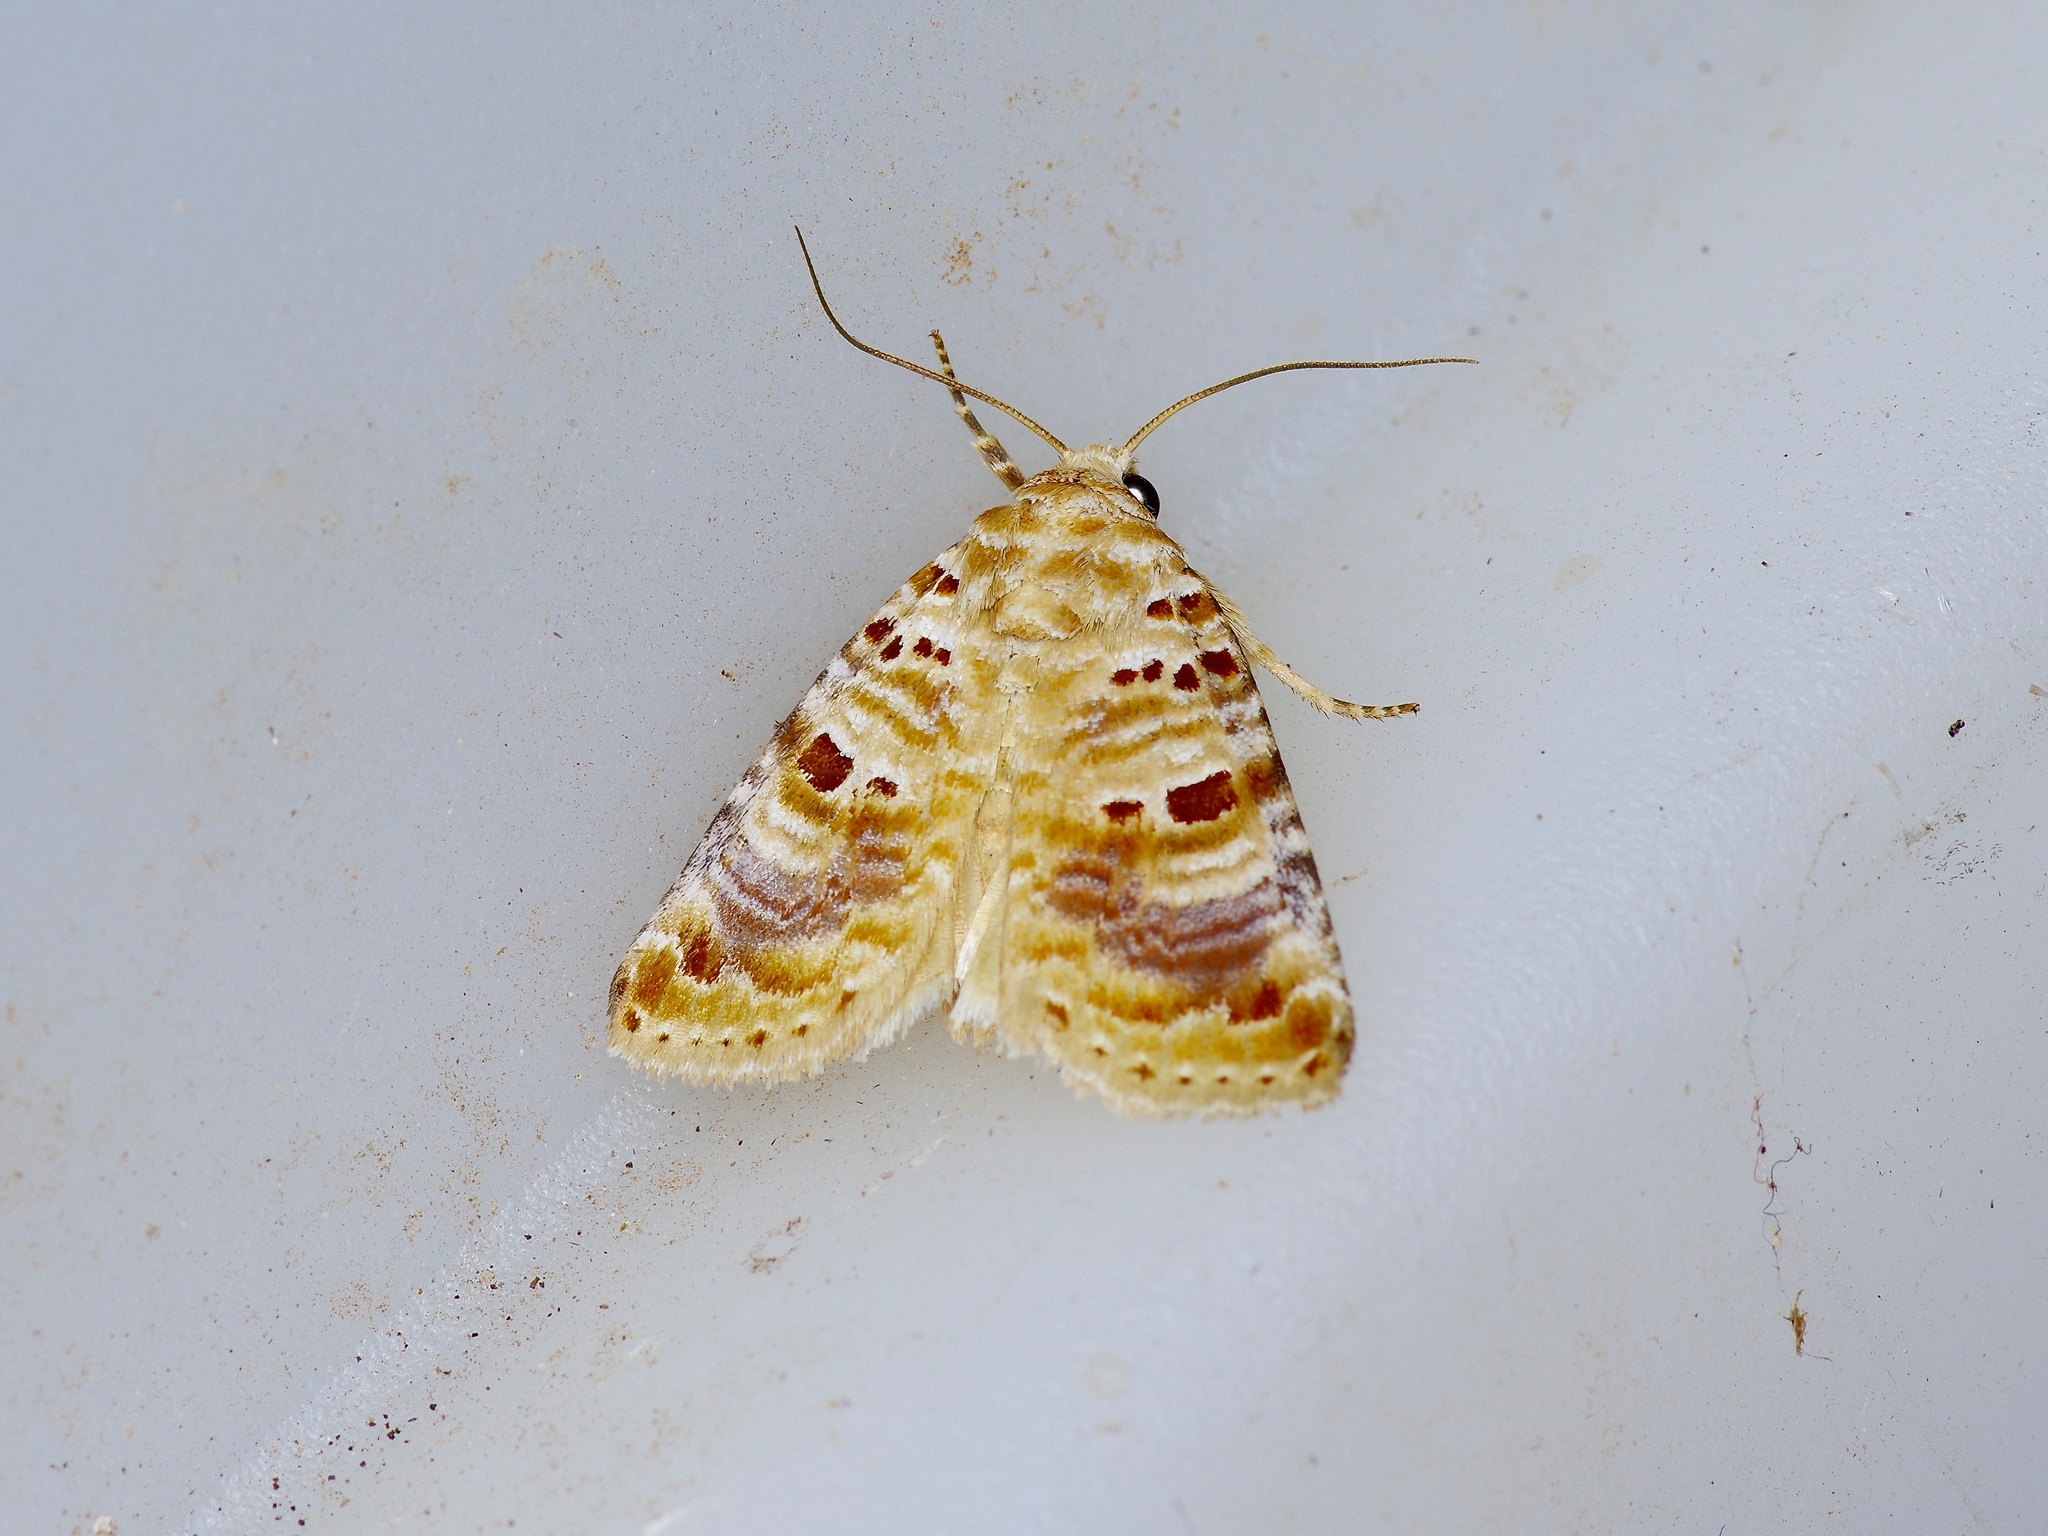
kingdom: Animalia
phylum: Arthropoda
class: Insecta
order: Lepidoptera
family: Noctuidae
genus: Diastema
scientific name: Diastema tigris
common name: Lantana moth
